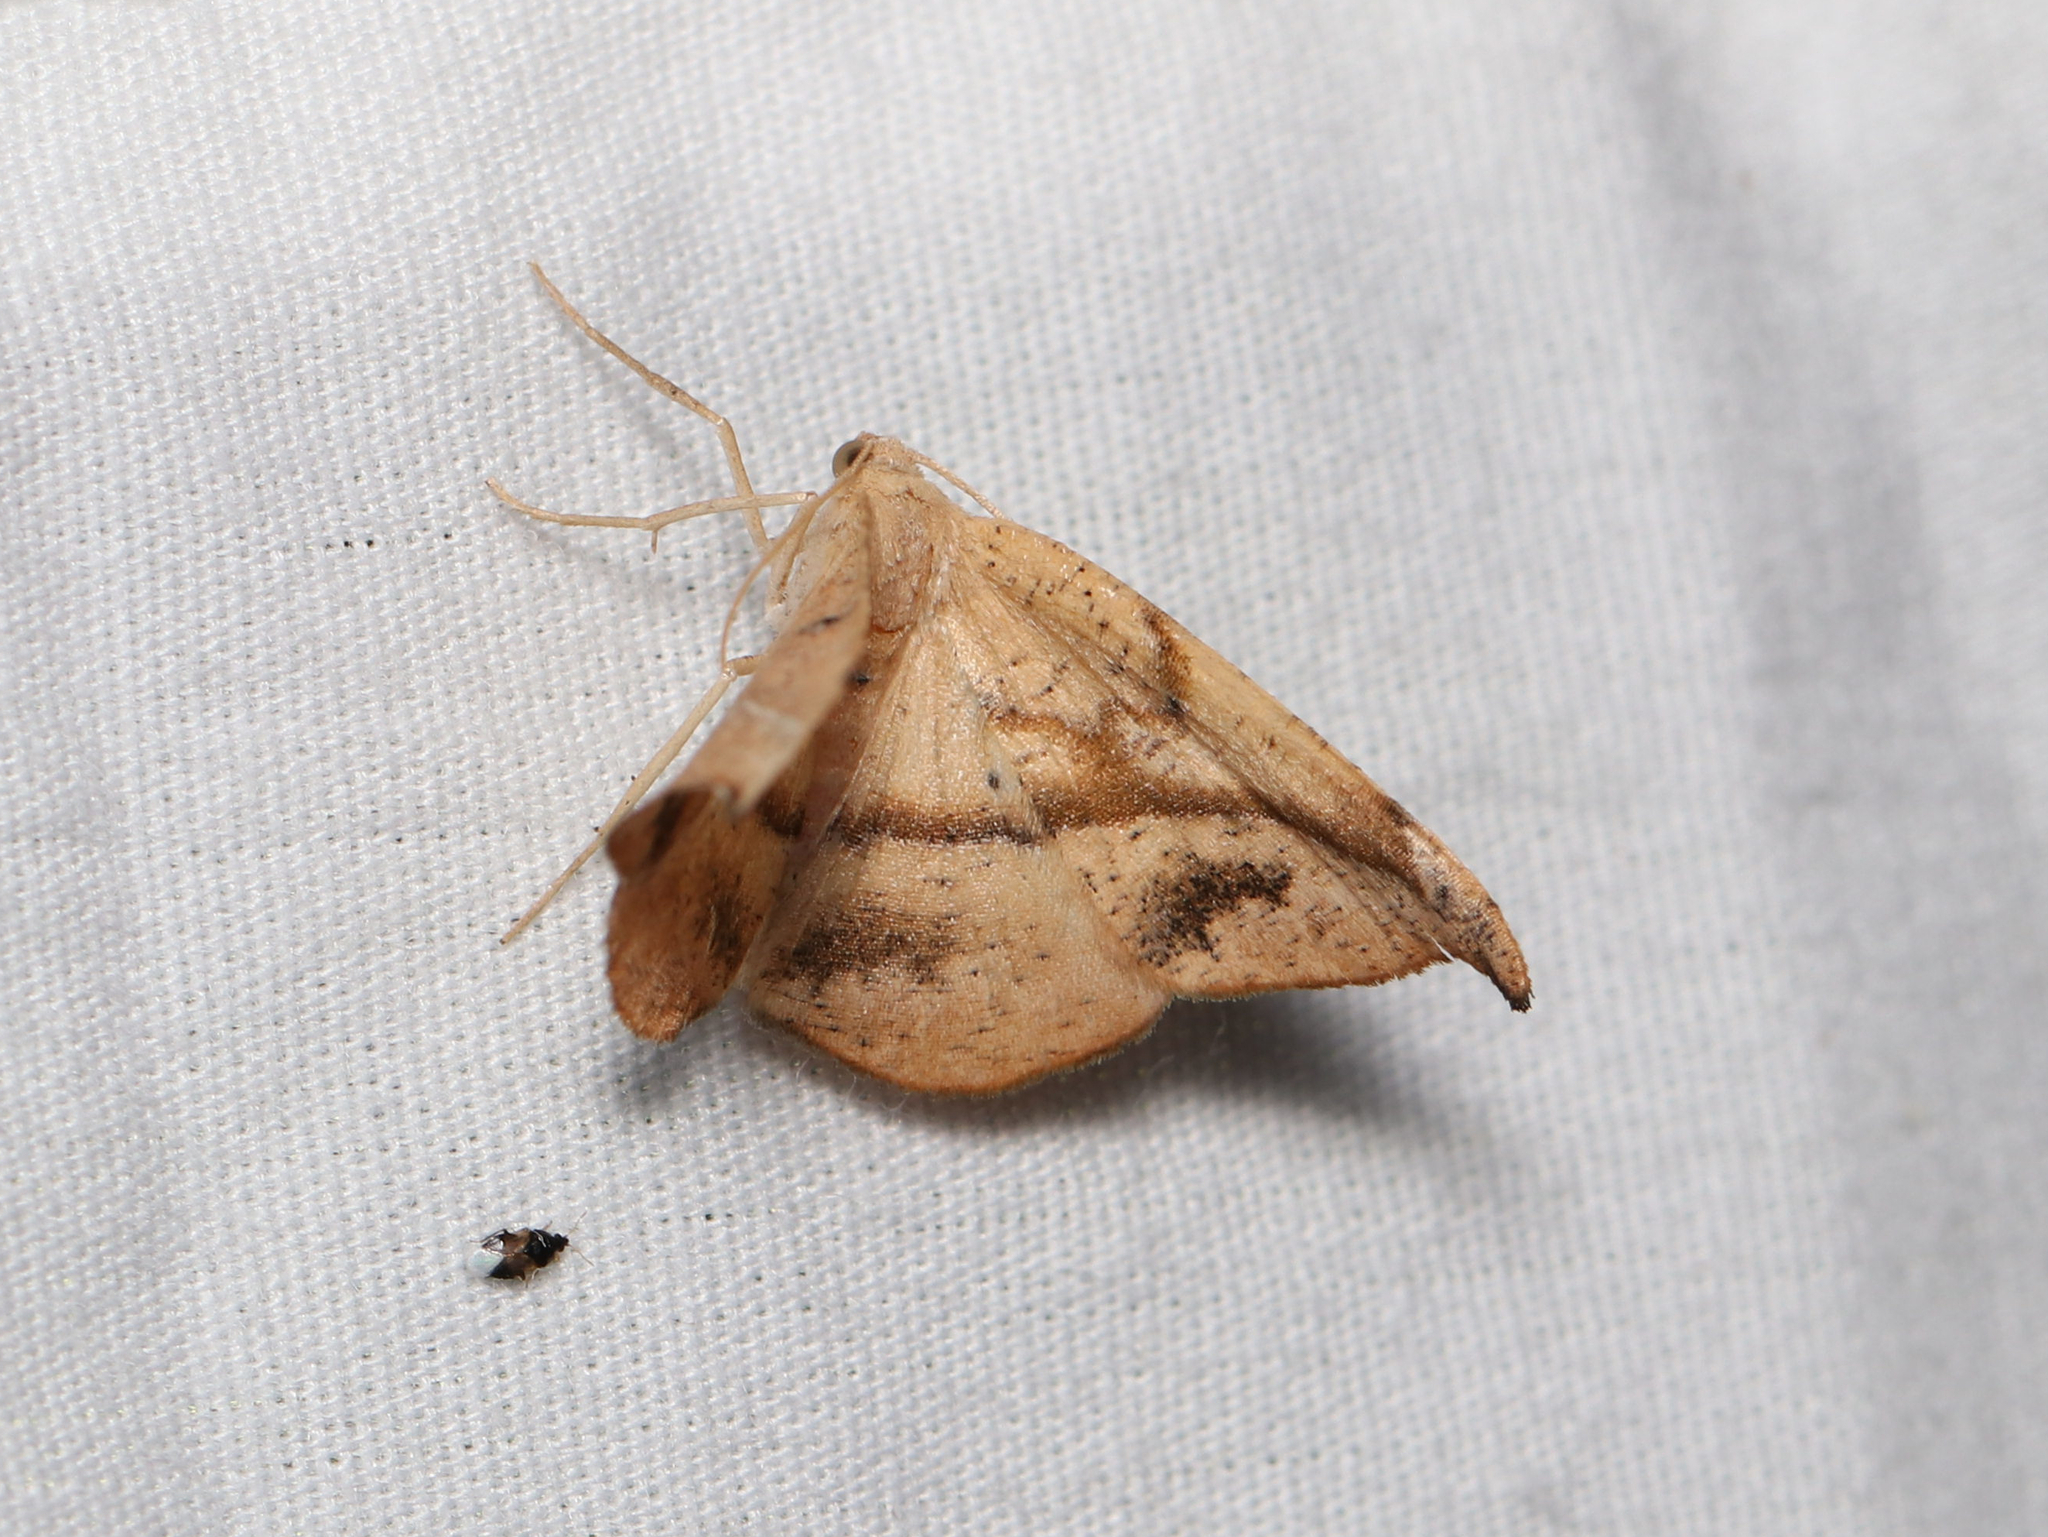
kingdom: Animalia
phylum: Arthropoda
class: Insecta
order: Lepidoptera
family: Geometridae
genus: Patalene
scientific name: Patalene olyzonaria
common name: Juniper geometer moth
